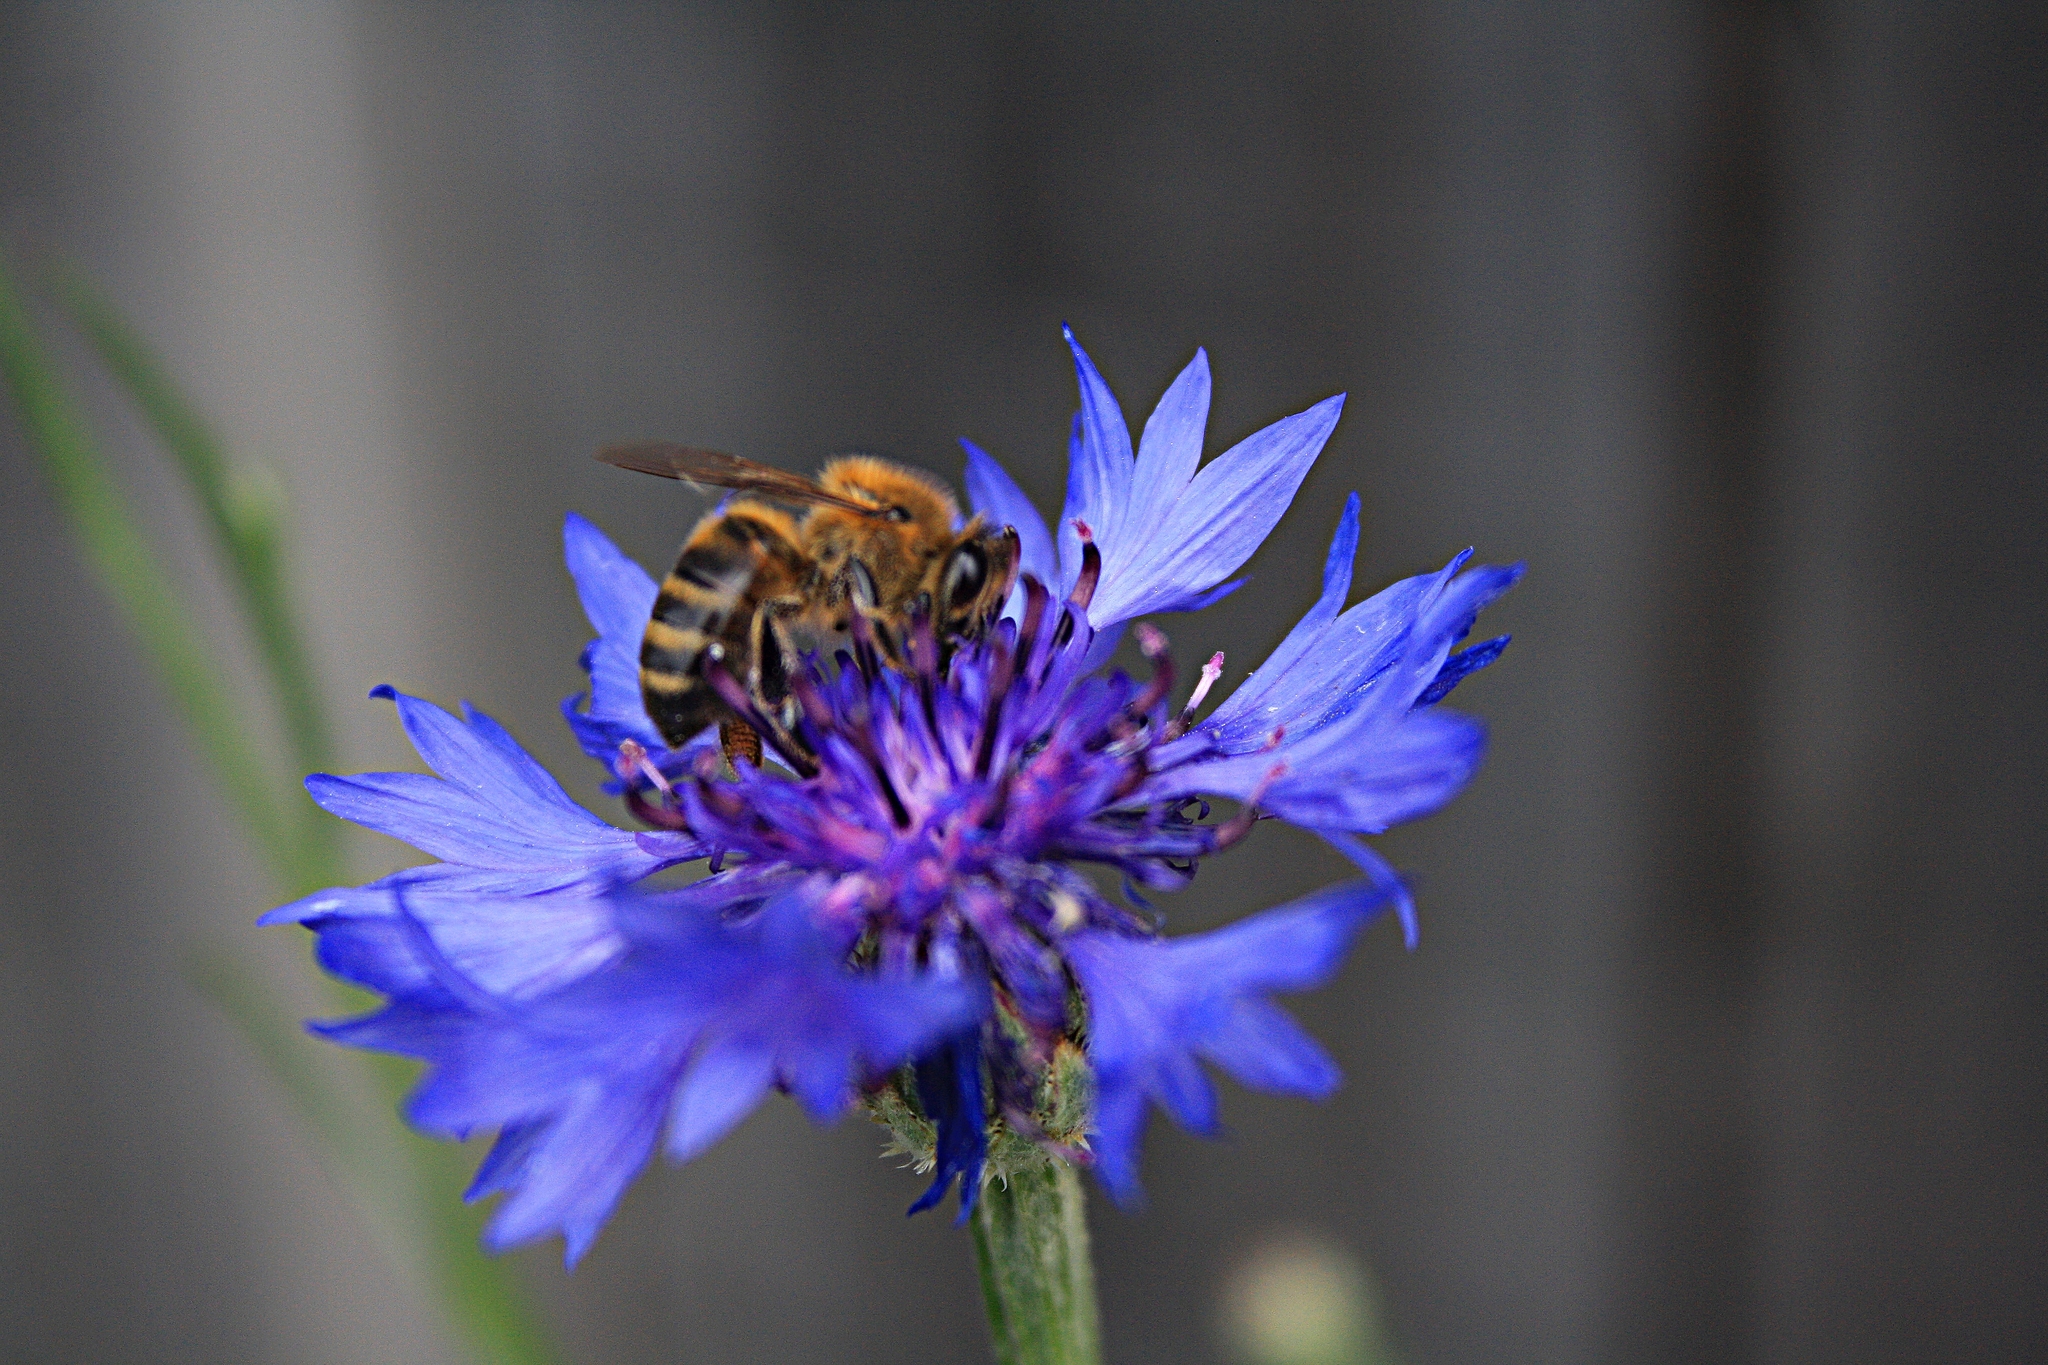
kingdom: Plantae
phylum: Tracheophyta
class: Magnoliopsida
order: Asterales
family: Asteraceae
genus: Centaurea
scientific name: Centaurea cyanus
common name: Cornflower
